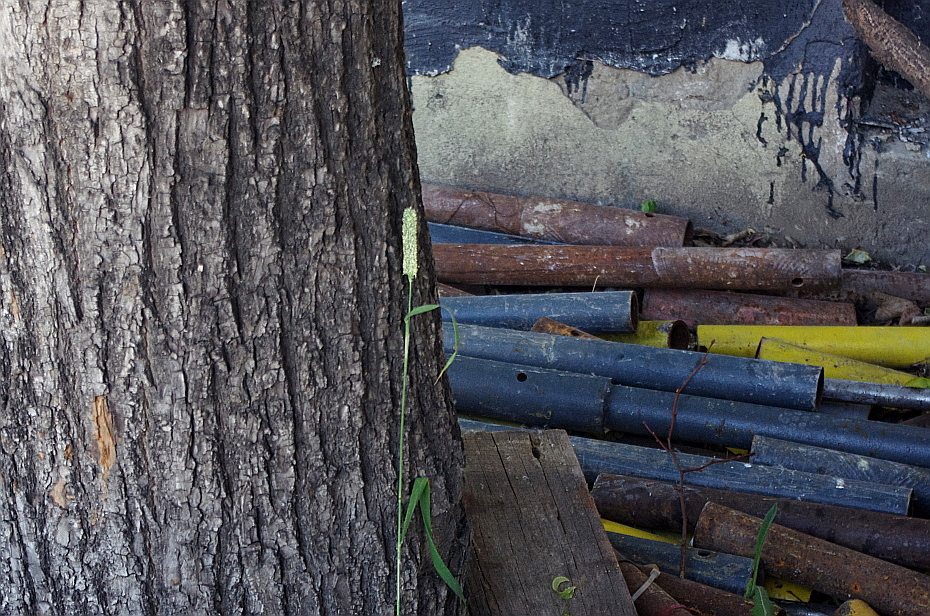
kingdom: Plantae
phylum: Tracheophyta
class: Liliopsida
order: Poales
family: Poaceae
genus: Phleum
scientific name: Phleum pratense
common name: Timothy grass
